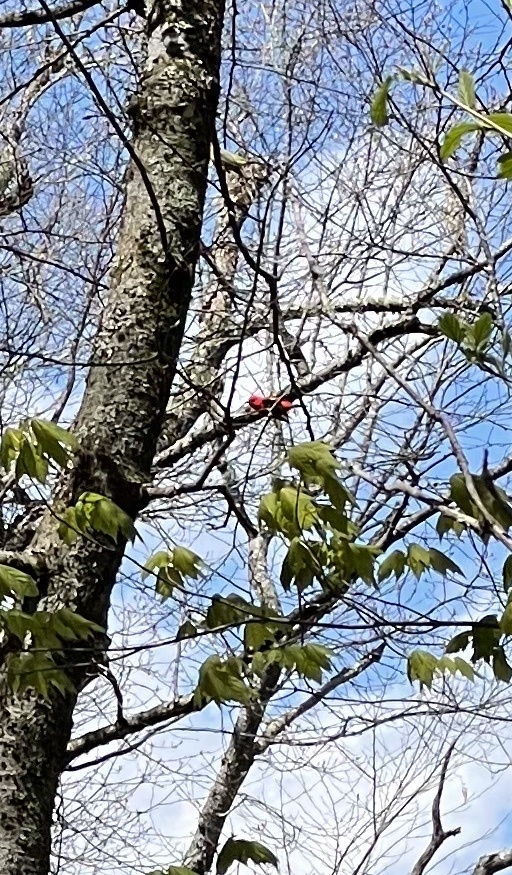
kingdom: Animalia
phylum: Chordata
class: Aves
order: Passeriformes
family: Cardinalidae
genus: Piranga
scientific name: Piranga olivacea
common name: Scarlet tanager
